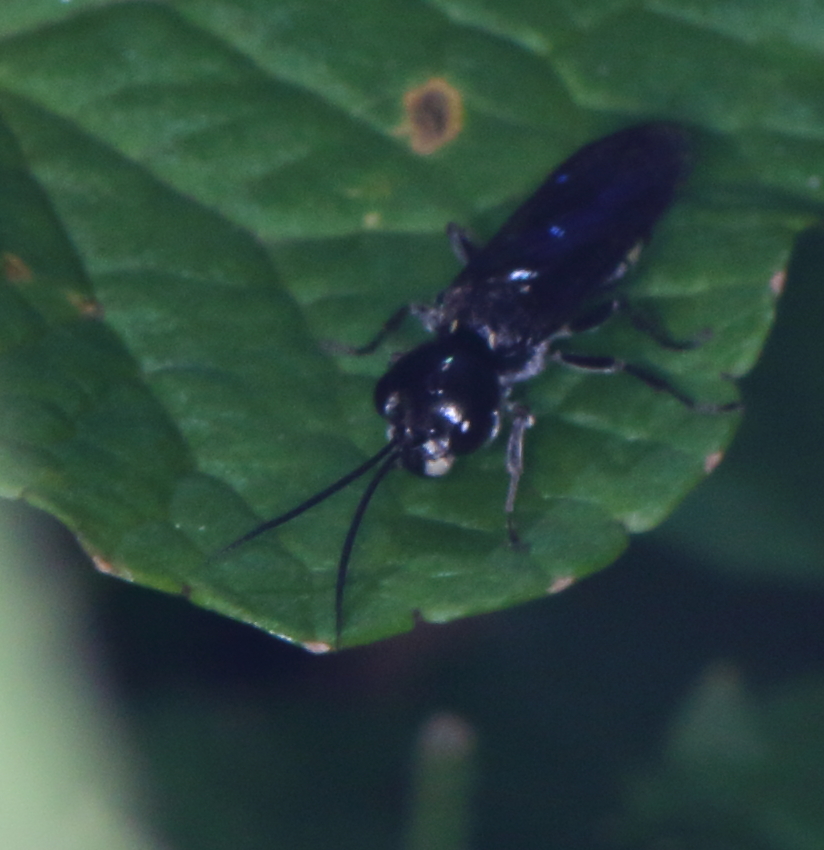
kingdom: Animalia
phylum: Arthropoda
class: Insecta
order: Hymenoptera
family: Trigonalidae
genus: Trigonalys
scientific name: Trigonalys natalensis
